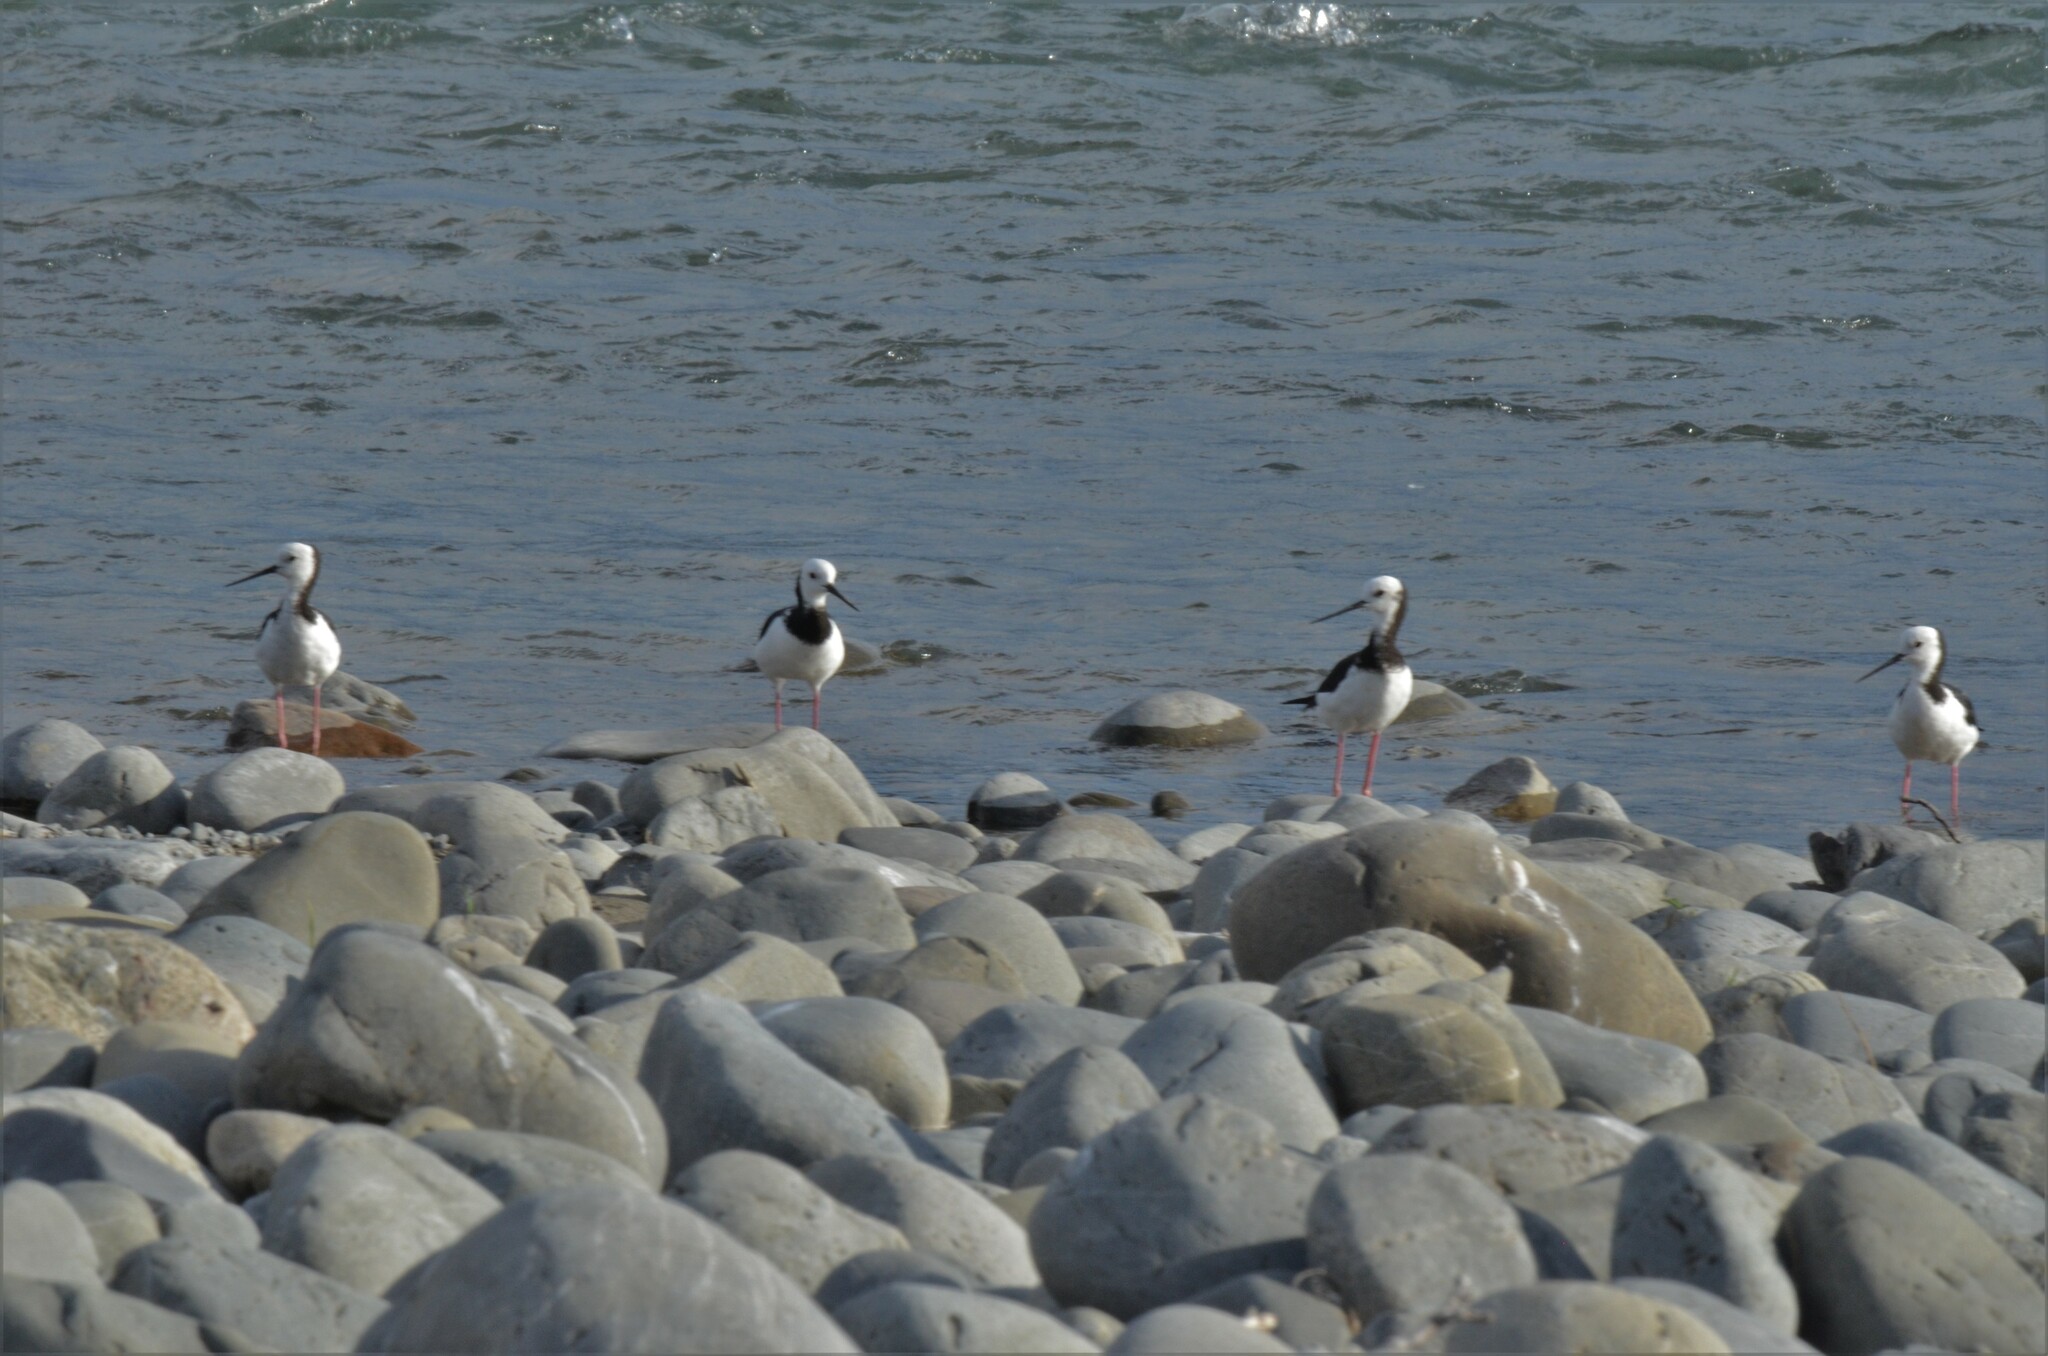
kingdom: Animalia
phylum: Chordata
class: Aves
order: Charadriiformes
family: Recurvirostridae
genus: Himantopus
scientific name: Himantopus leucocephalus
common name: White-headed stilt
